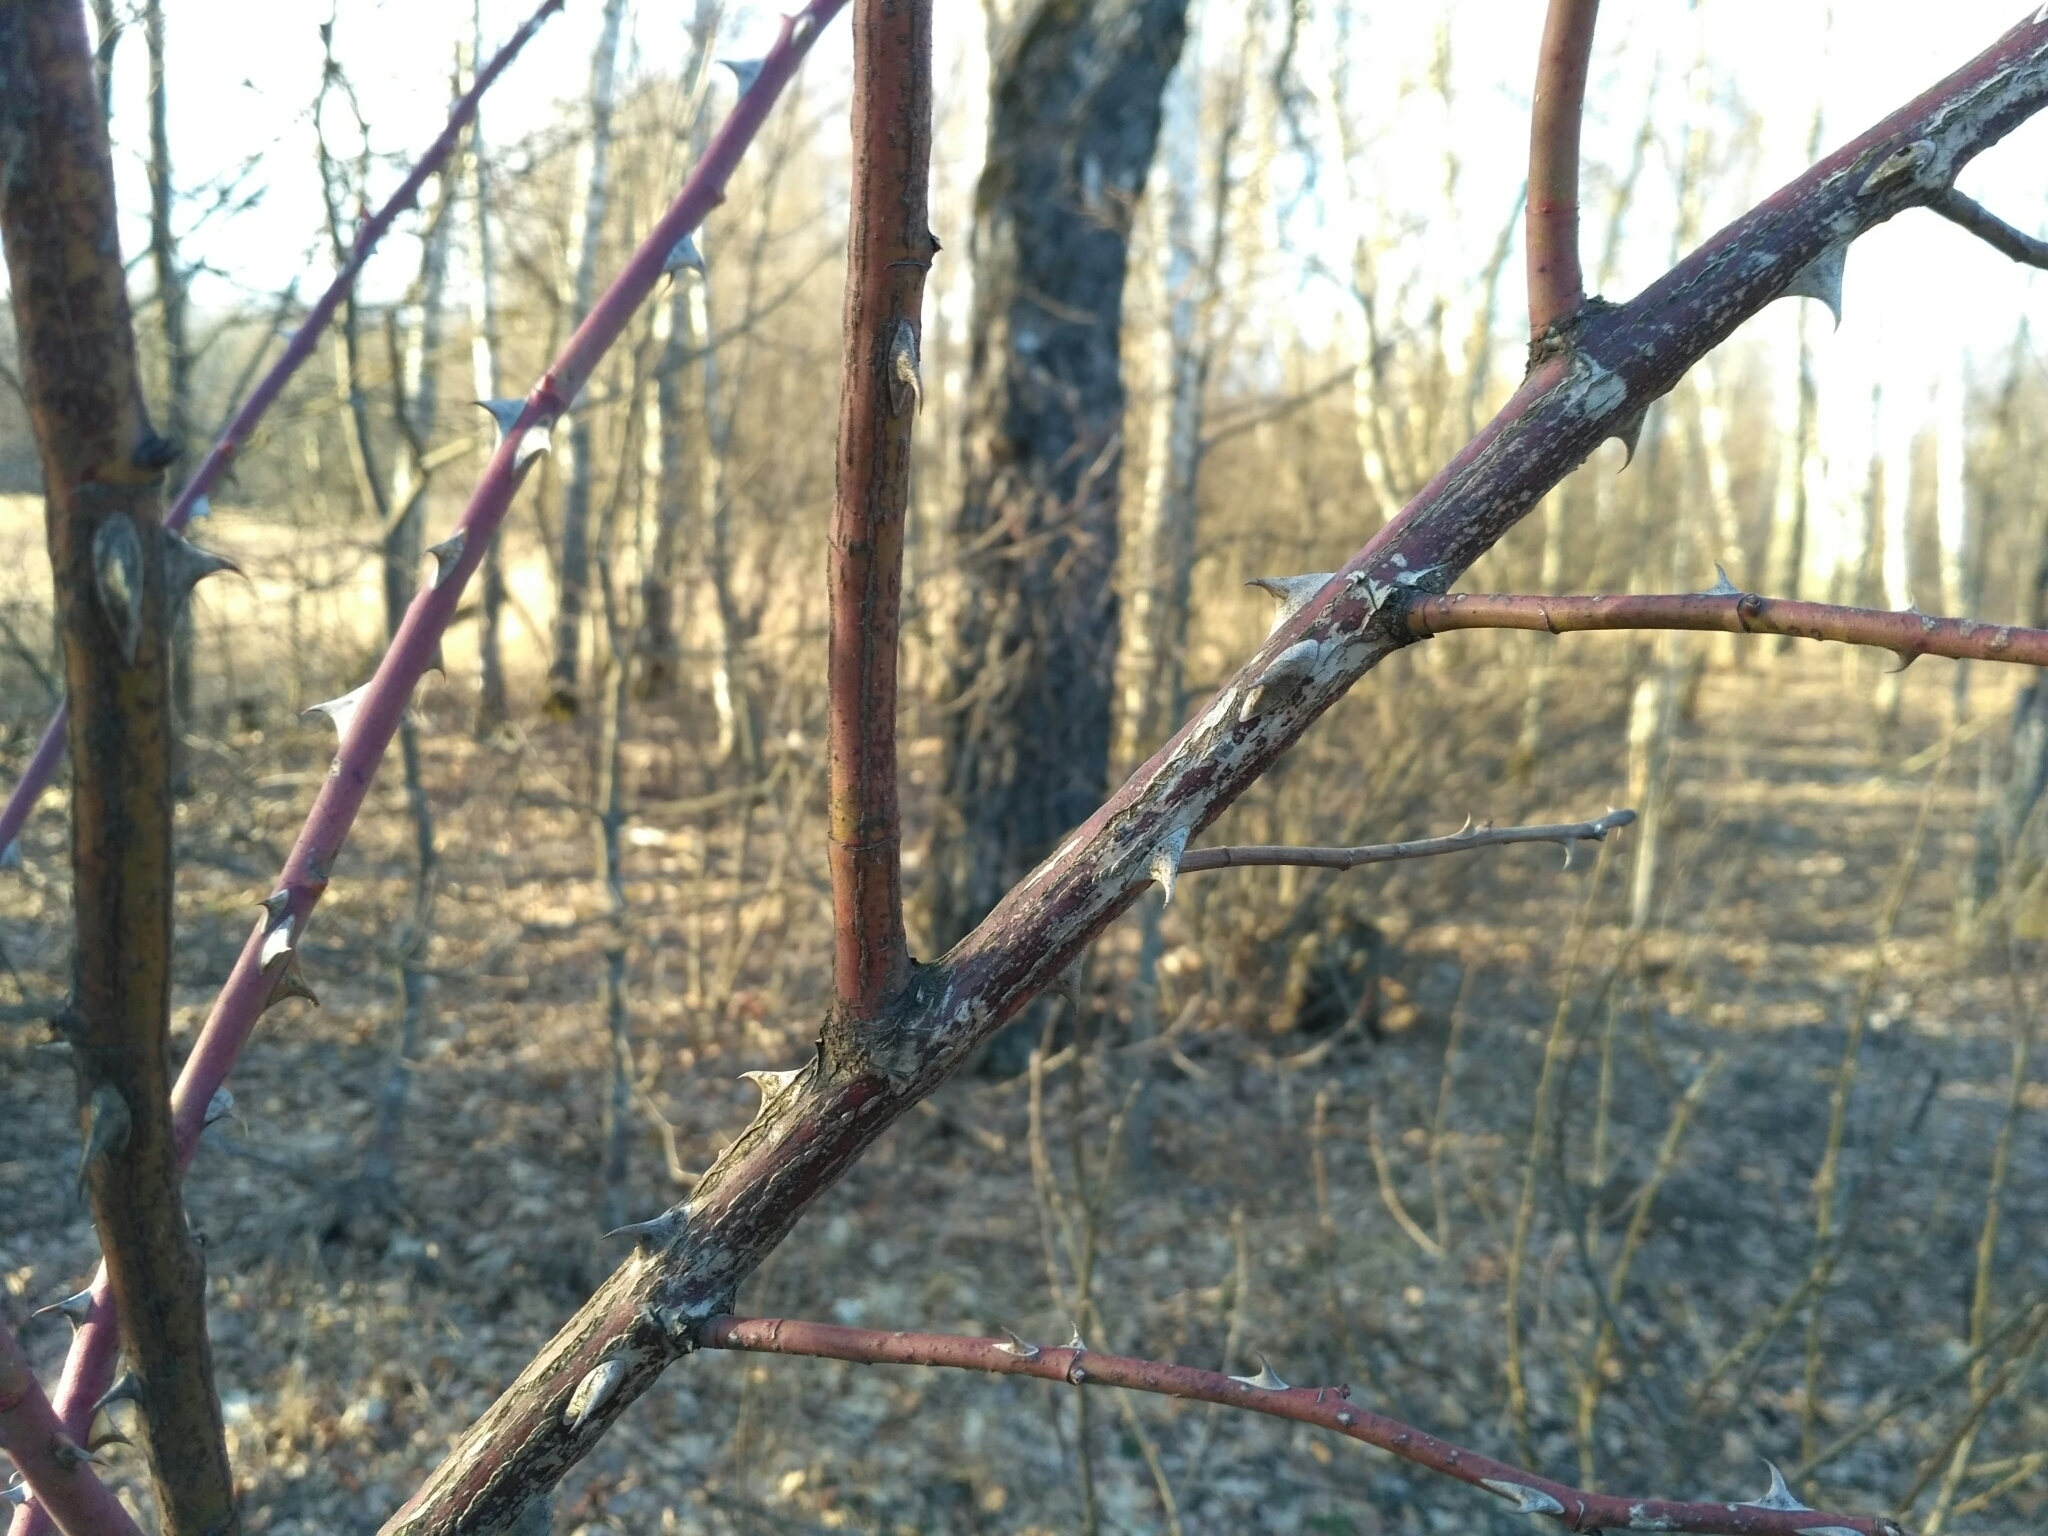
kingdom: Plantae
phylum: Tracheophyta
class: Magnoliopsida
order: Rosales
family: Rosaceae
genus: Rosa
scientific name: Rosa
